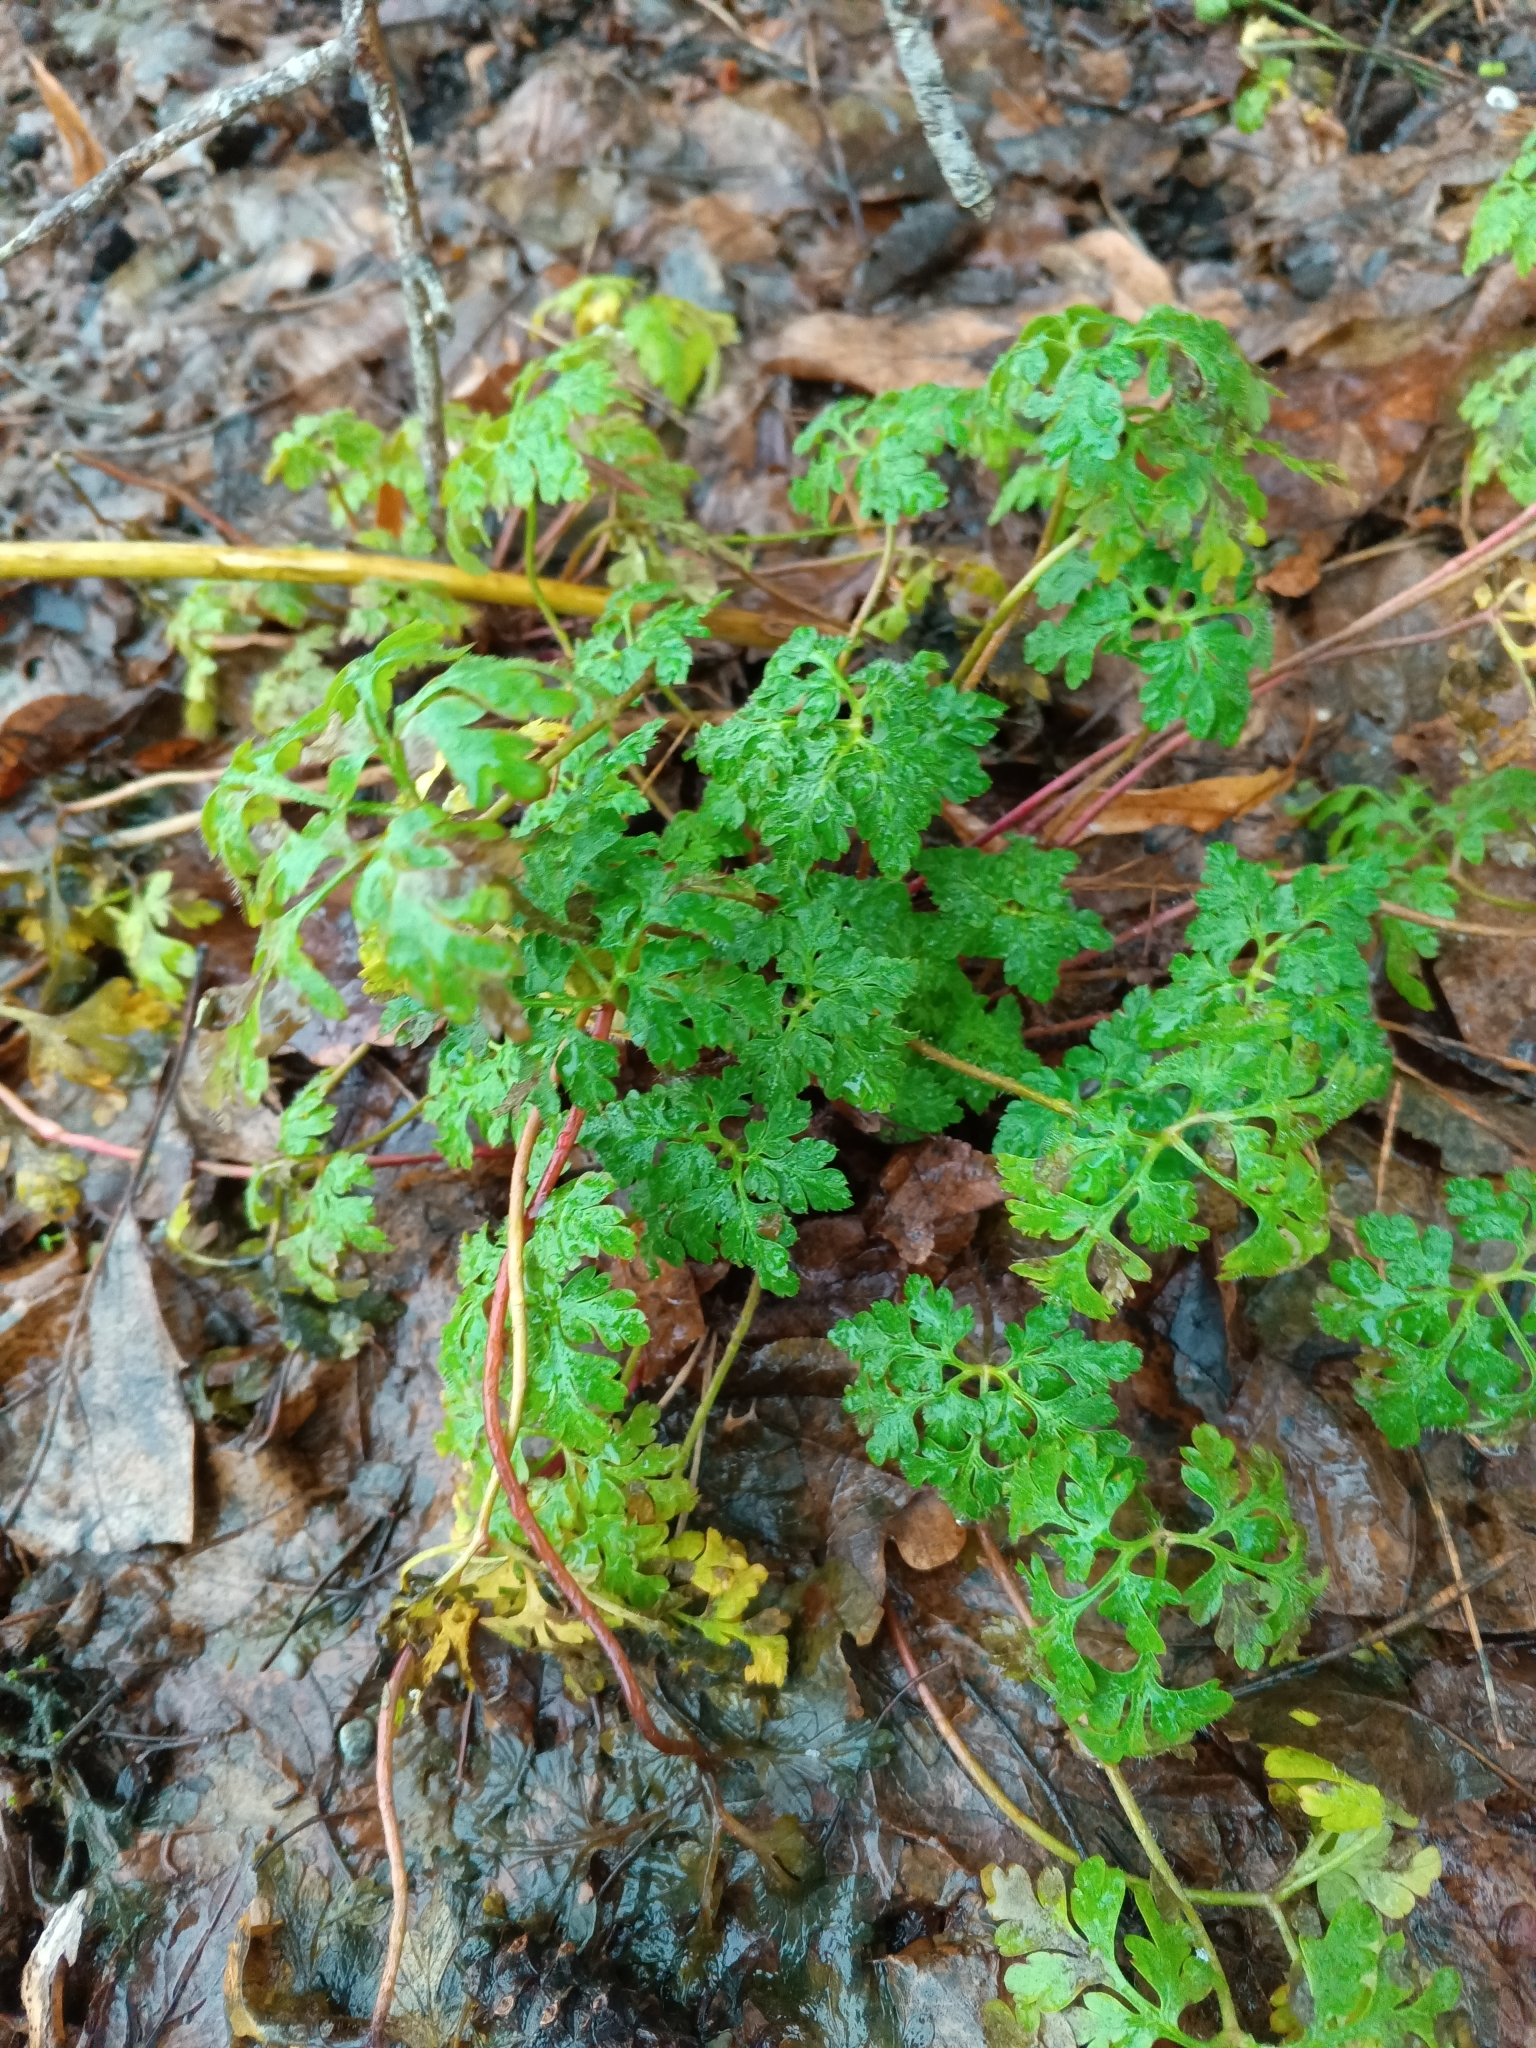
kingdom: Plantae
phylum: Tracheophyta
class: Magnoliopsida
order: Geraniales
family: Geraniaceae
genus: Geranium
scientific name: Geranium robertianum
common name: Herb-robert
